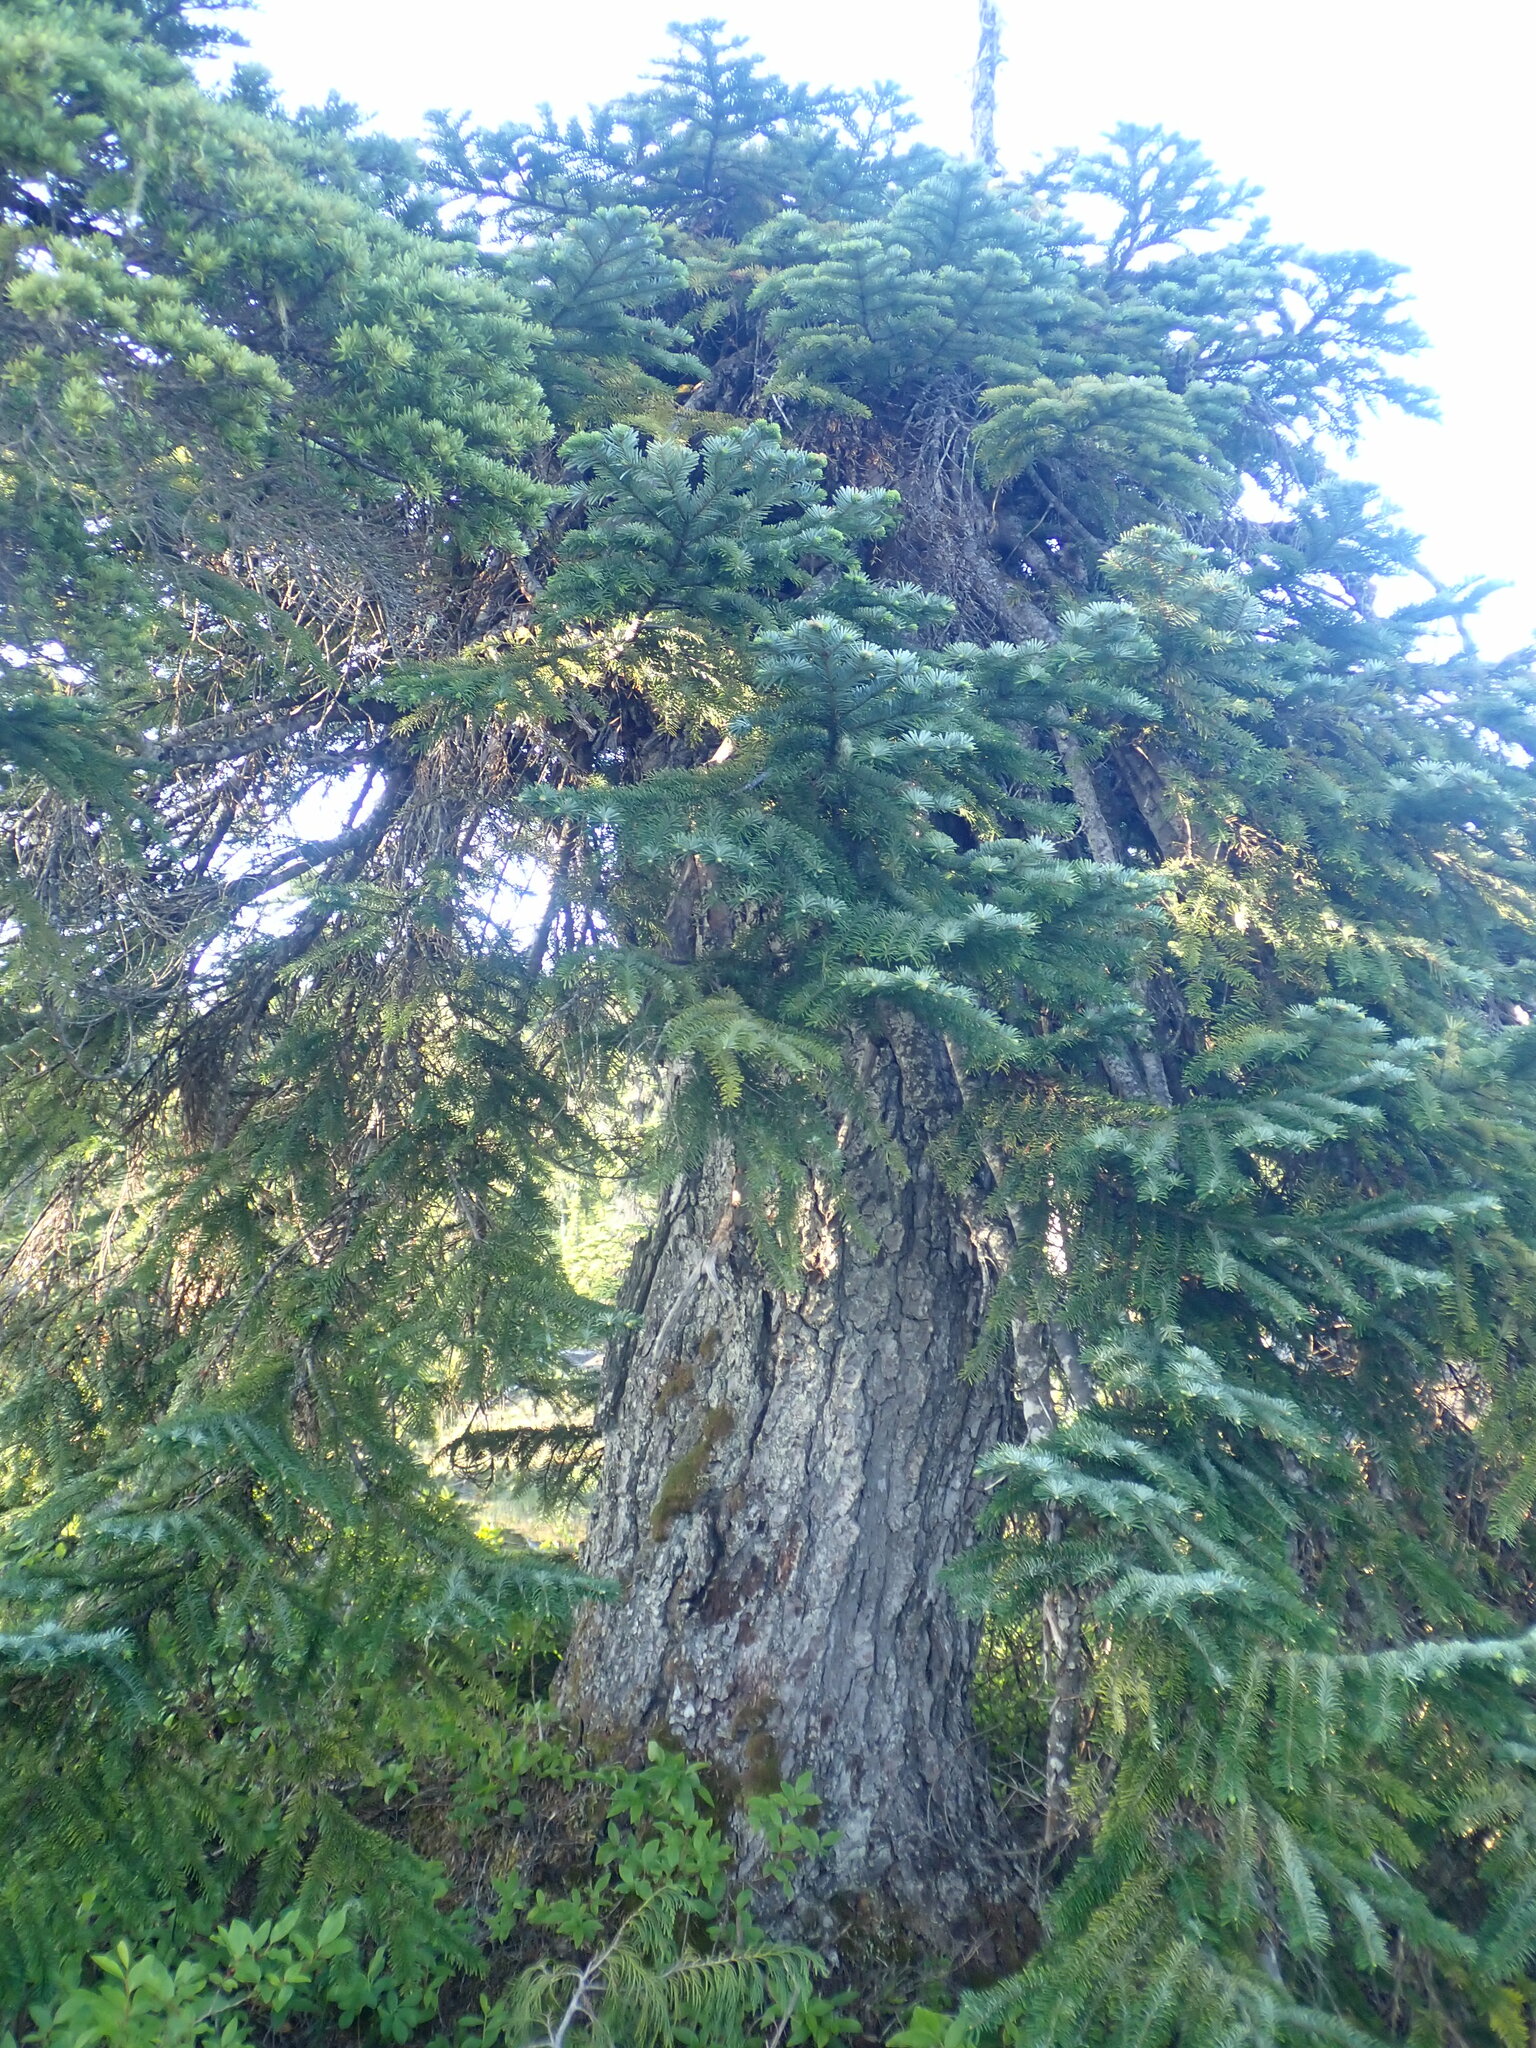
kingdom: Plantae
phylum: Tracheophyta
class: Pinopsida
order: Pinales
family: Pinaceae
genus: Abies
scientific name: Abies amabilis
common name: Pacific silver fir
